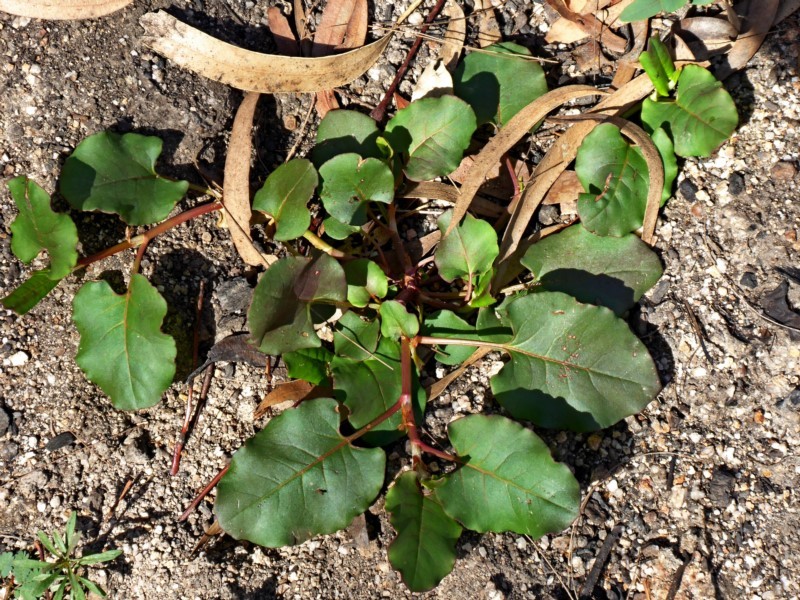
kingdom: Plantae
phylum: Tracheophyta
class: Magnoliopsida
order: Caryophyllales
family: Polygonaceae
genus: Muehlenbeckia
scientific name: Muehlenbeckia rhyticarya
